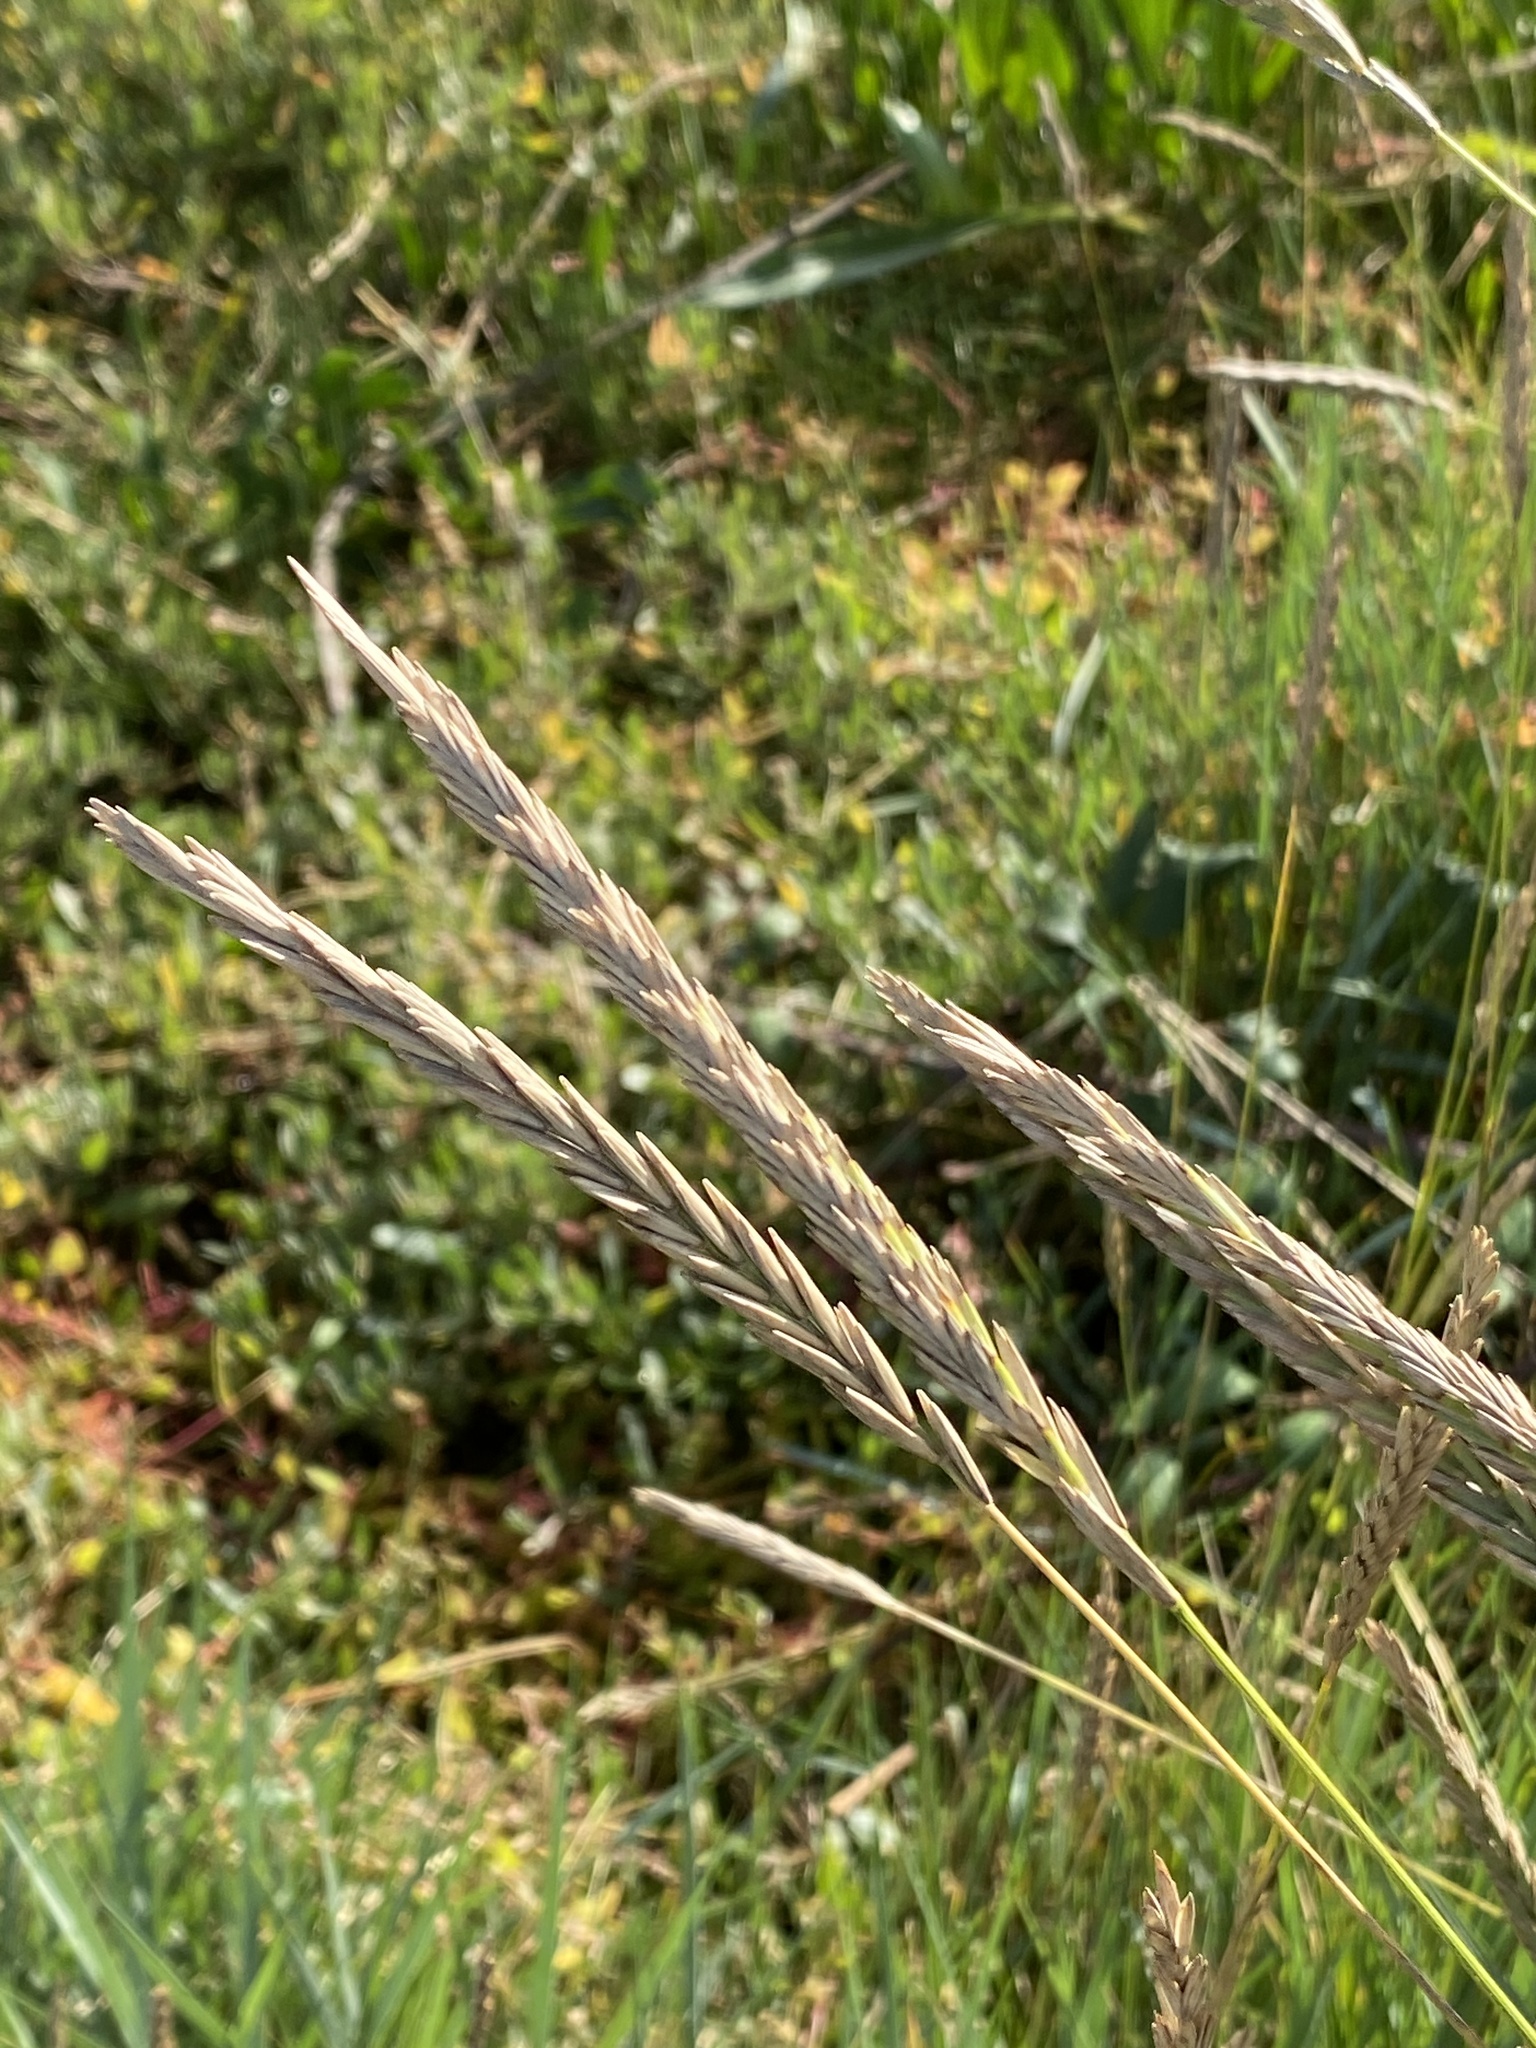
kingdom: Plantae
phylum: Tracheophyta
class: Liliopsida
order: Poales
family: Poaceae
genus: Elymus
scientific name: Elymus athericus
